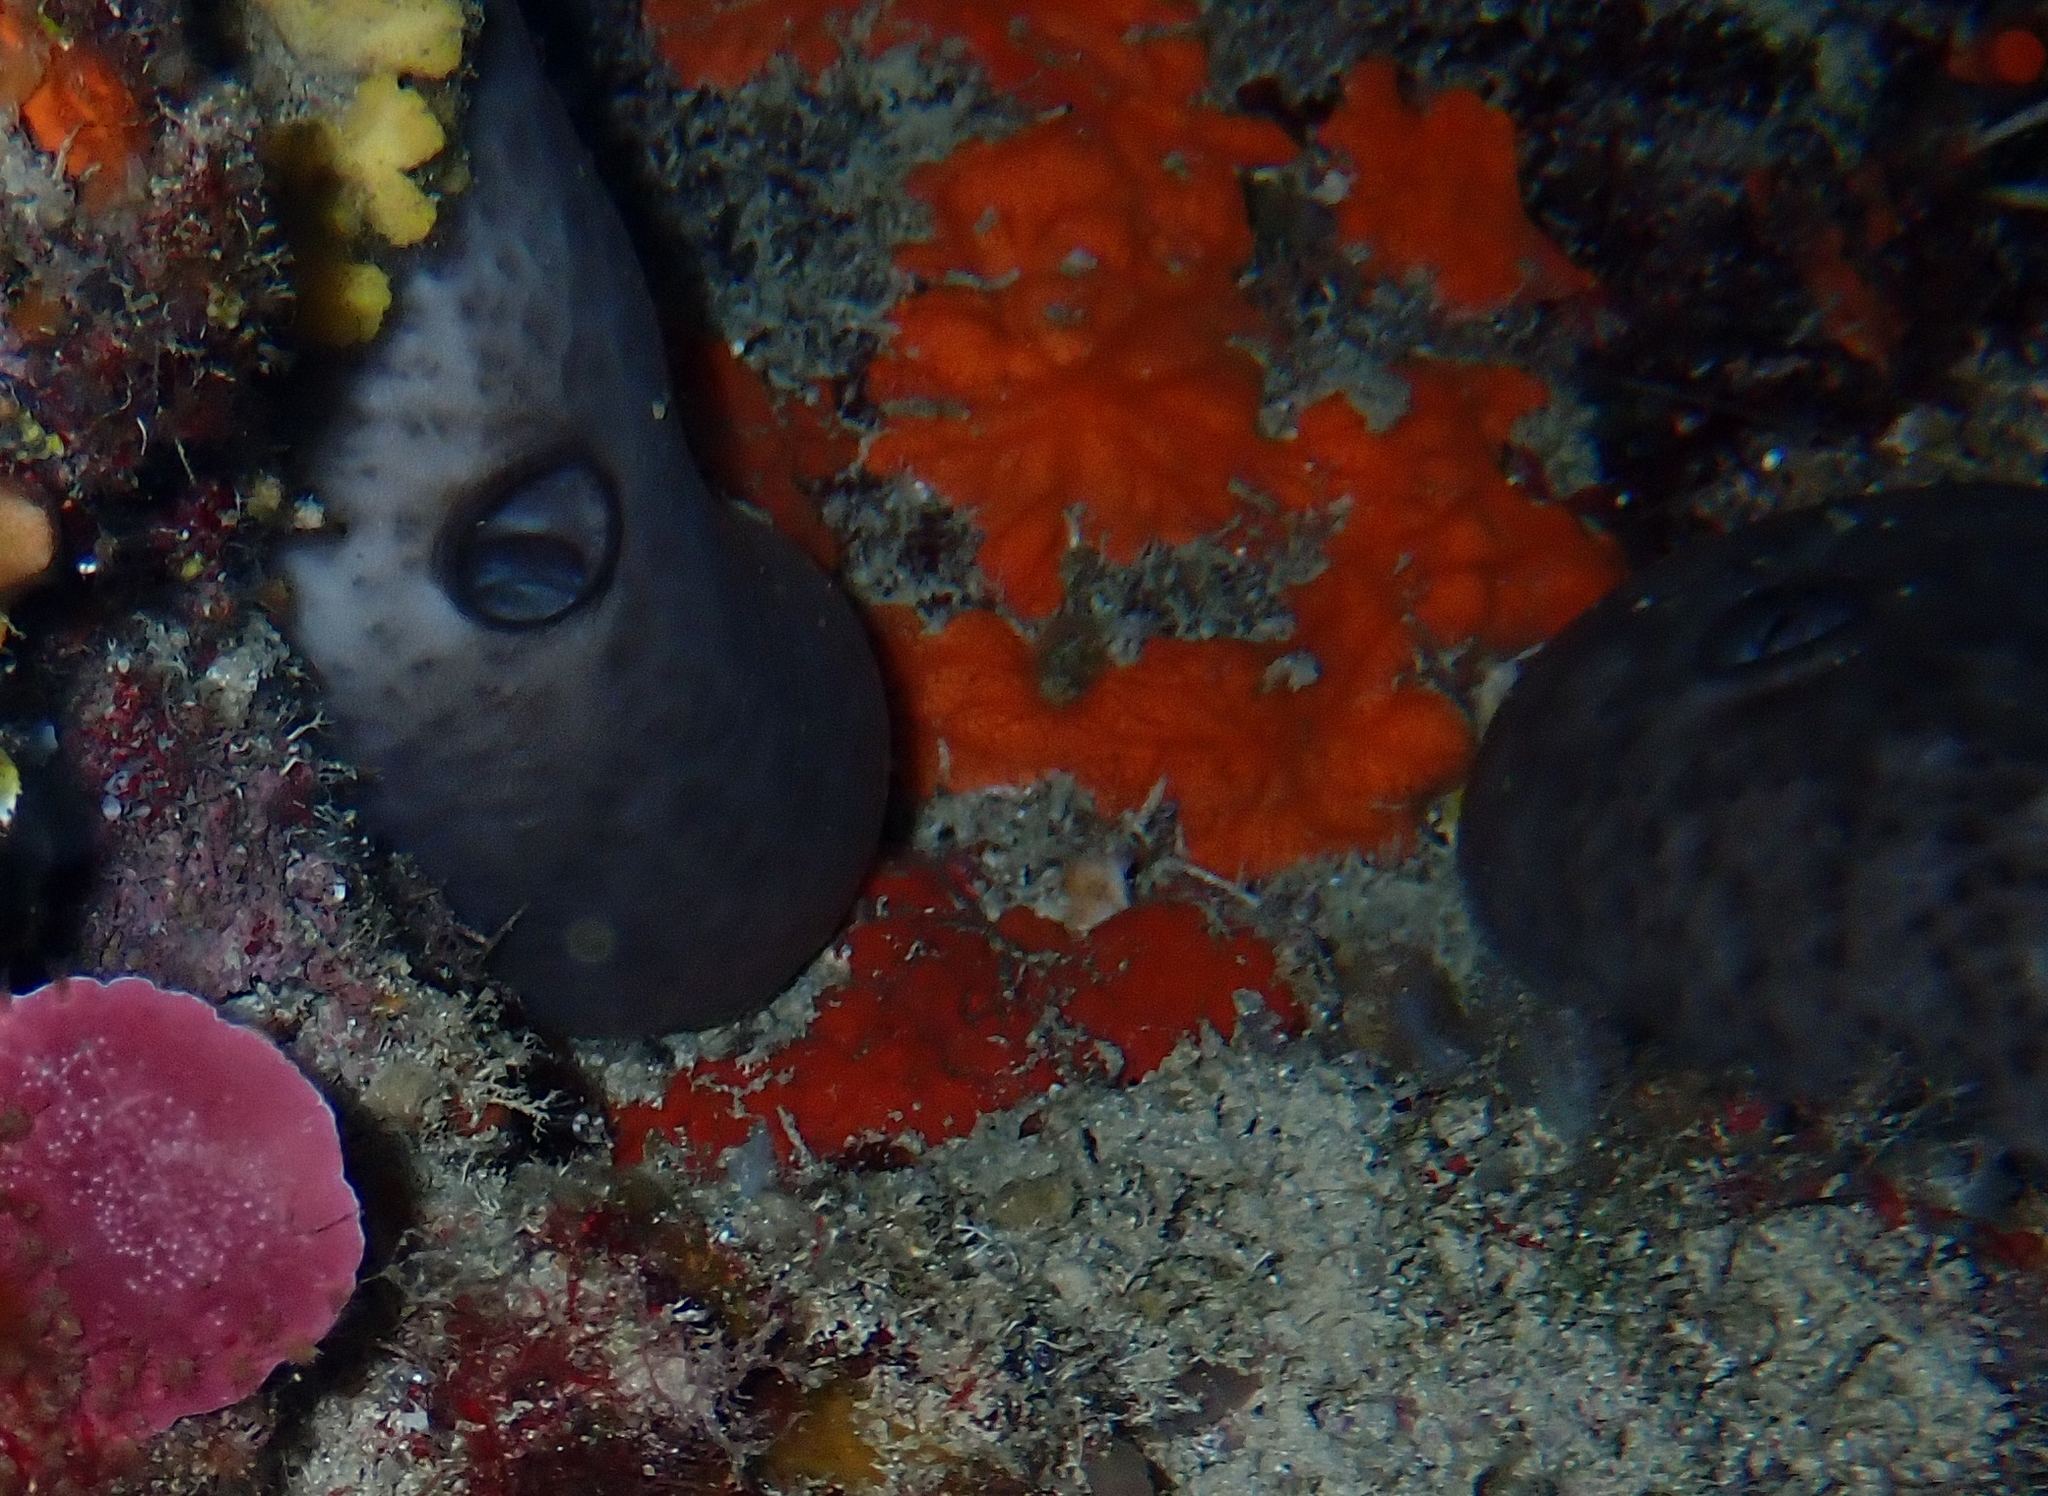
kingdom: Animalia
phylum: Porifera
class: Demospongiae
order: Chondrosiida
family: Chondrosiidae
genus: Chondrosia
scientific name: Chondrosia reniformis
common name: Chicken liver sponge
